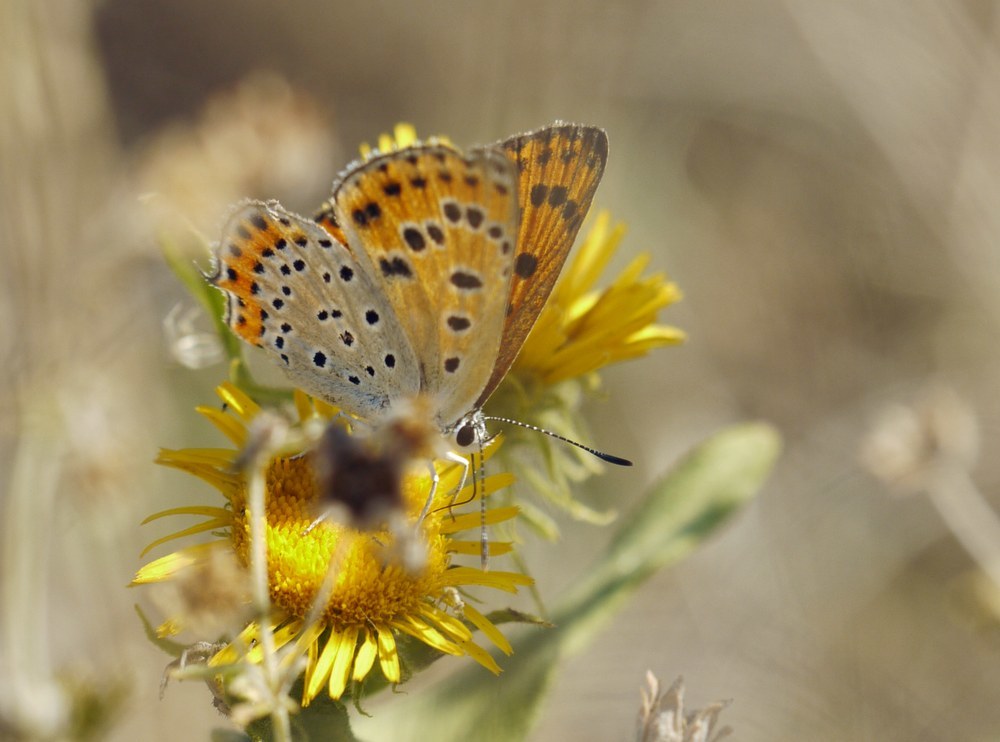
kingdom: Animalia
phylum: Arthropoda
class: Insecta
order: Lepidoptera
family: Lycaenidae
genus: Thersamonia
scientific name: Thersamonia thersamon
